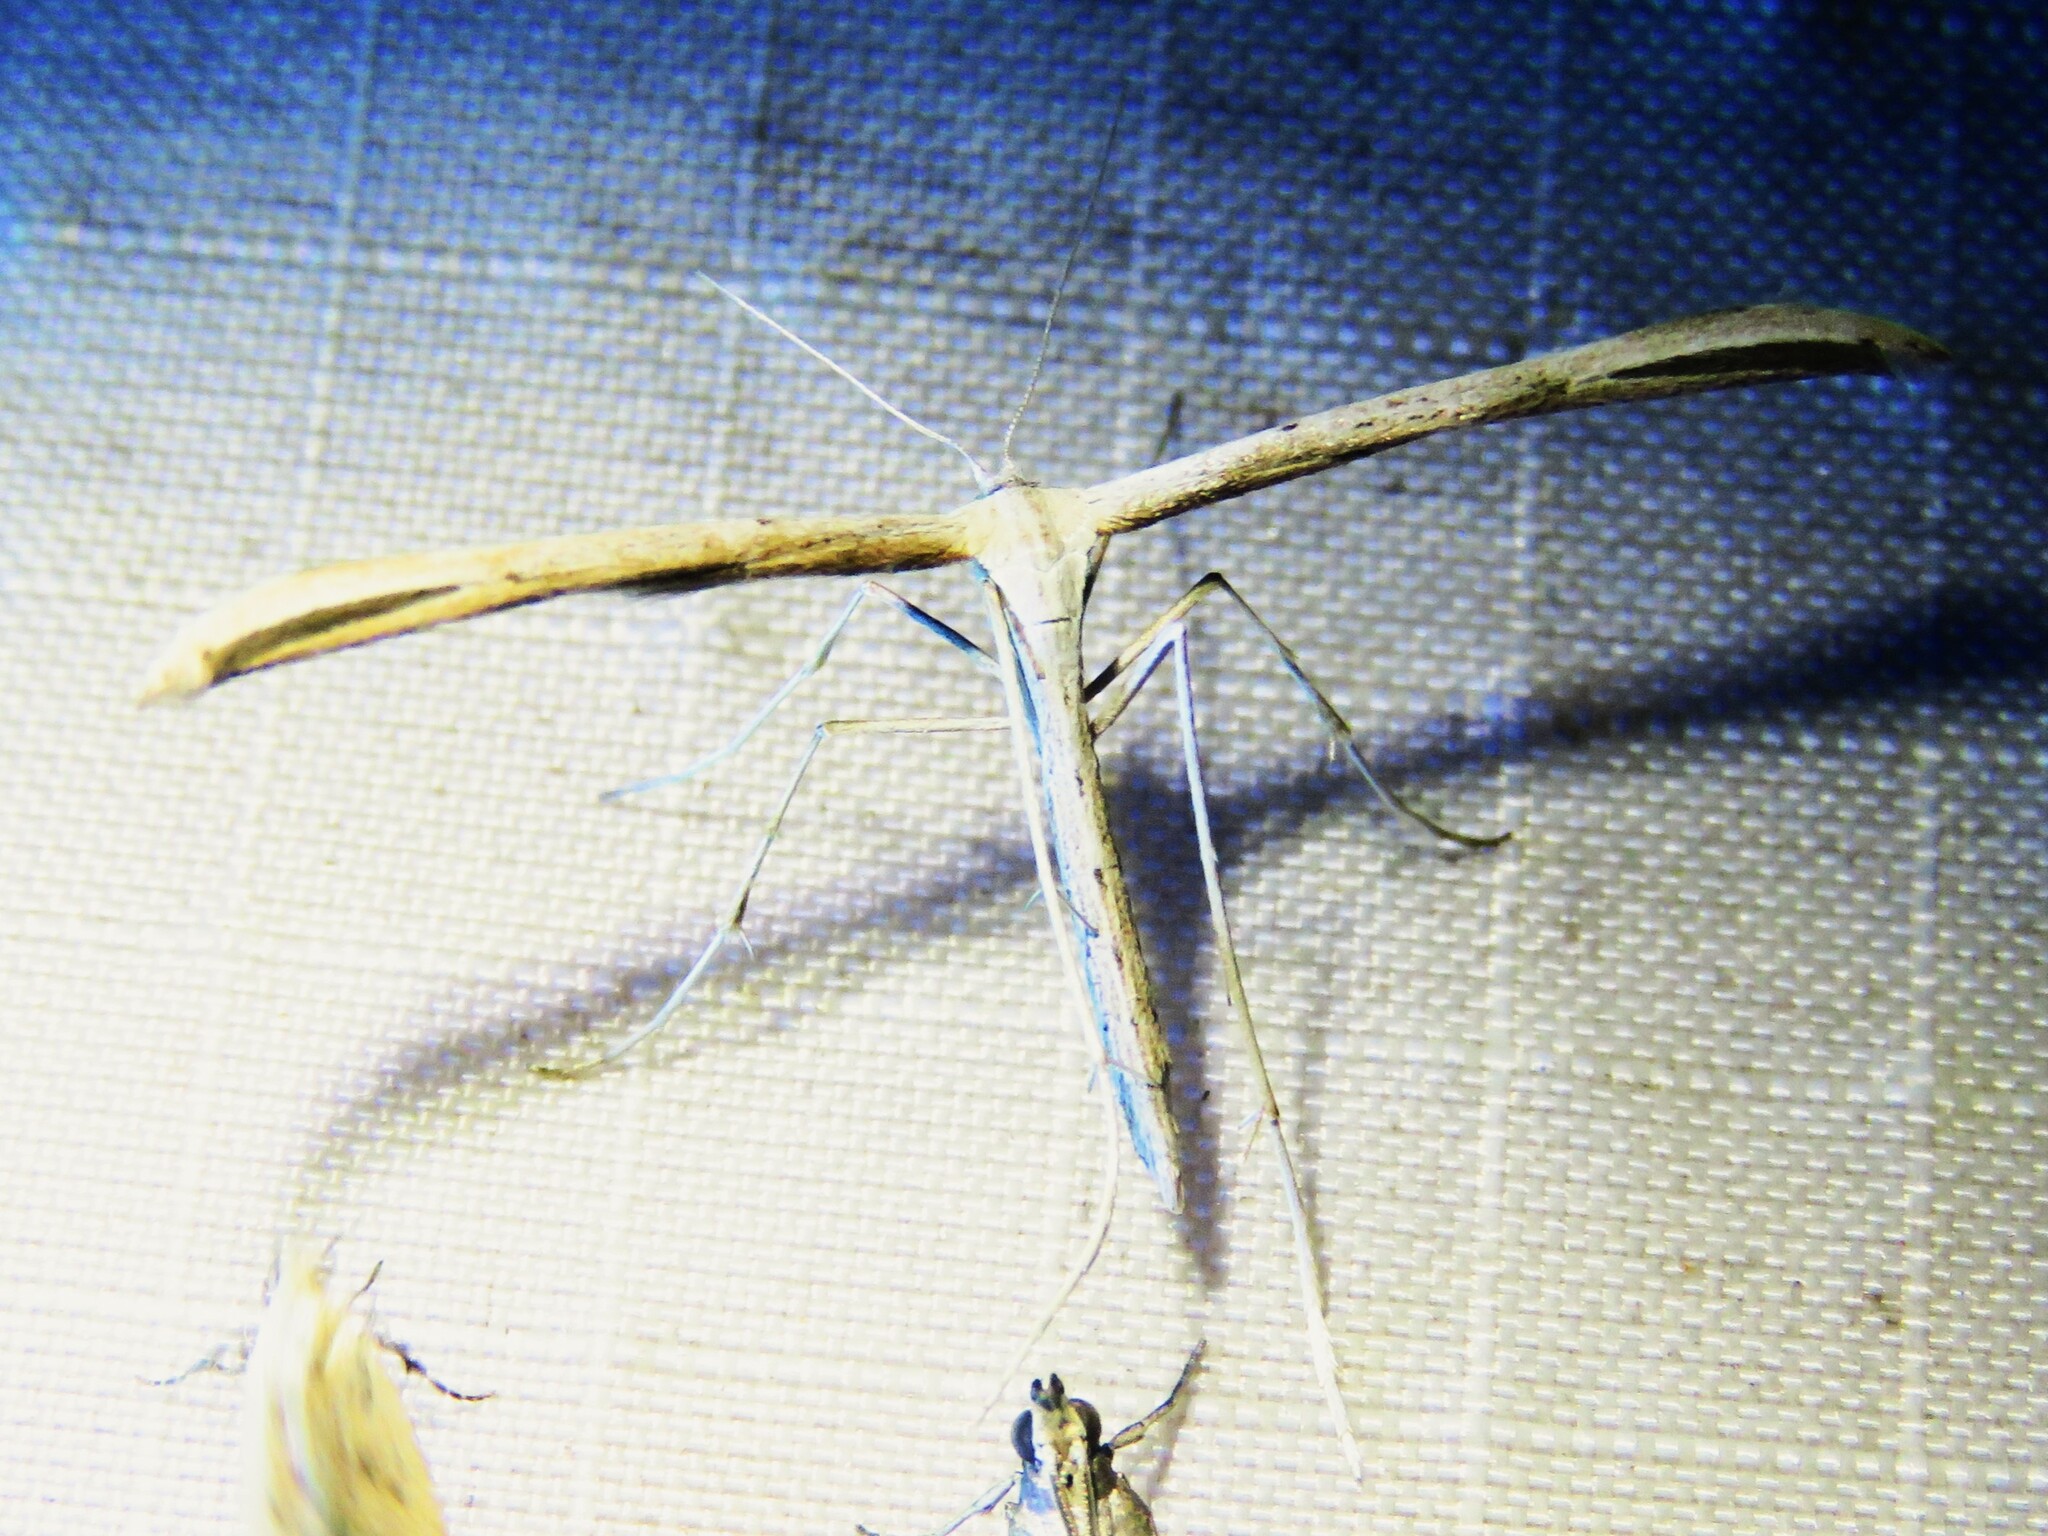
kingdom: Animalia
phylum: Arthropoda
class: Insecta
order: Lepidoptera
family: Pterophoridae
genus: Emmelina
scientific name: Emmelina monodactyla
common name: Common plume
